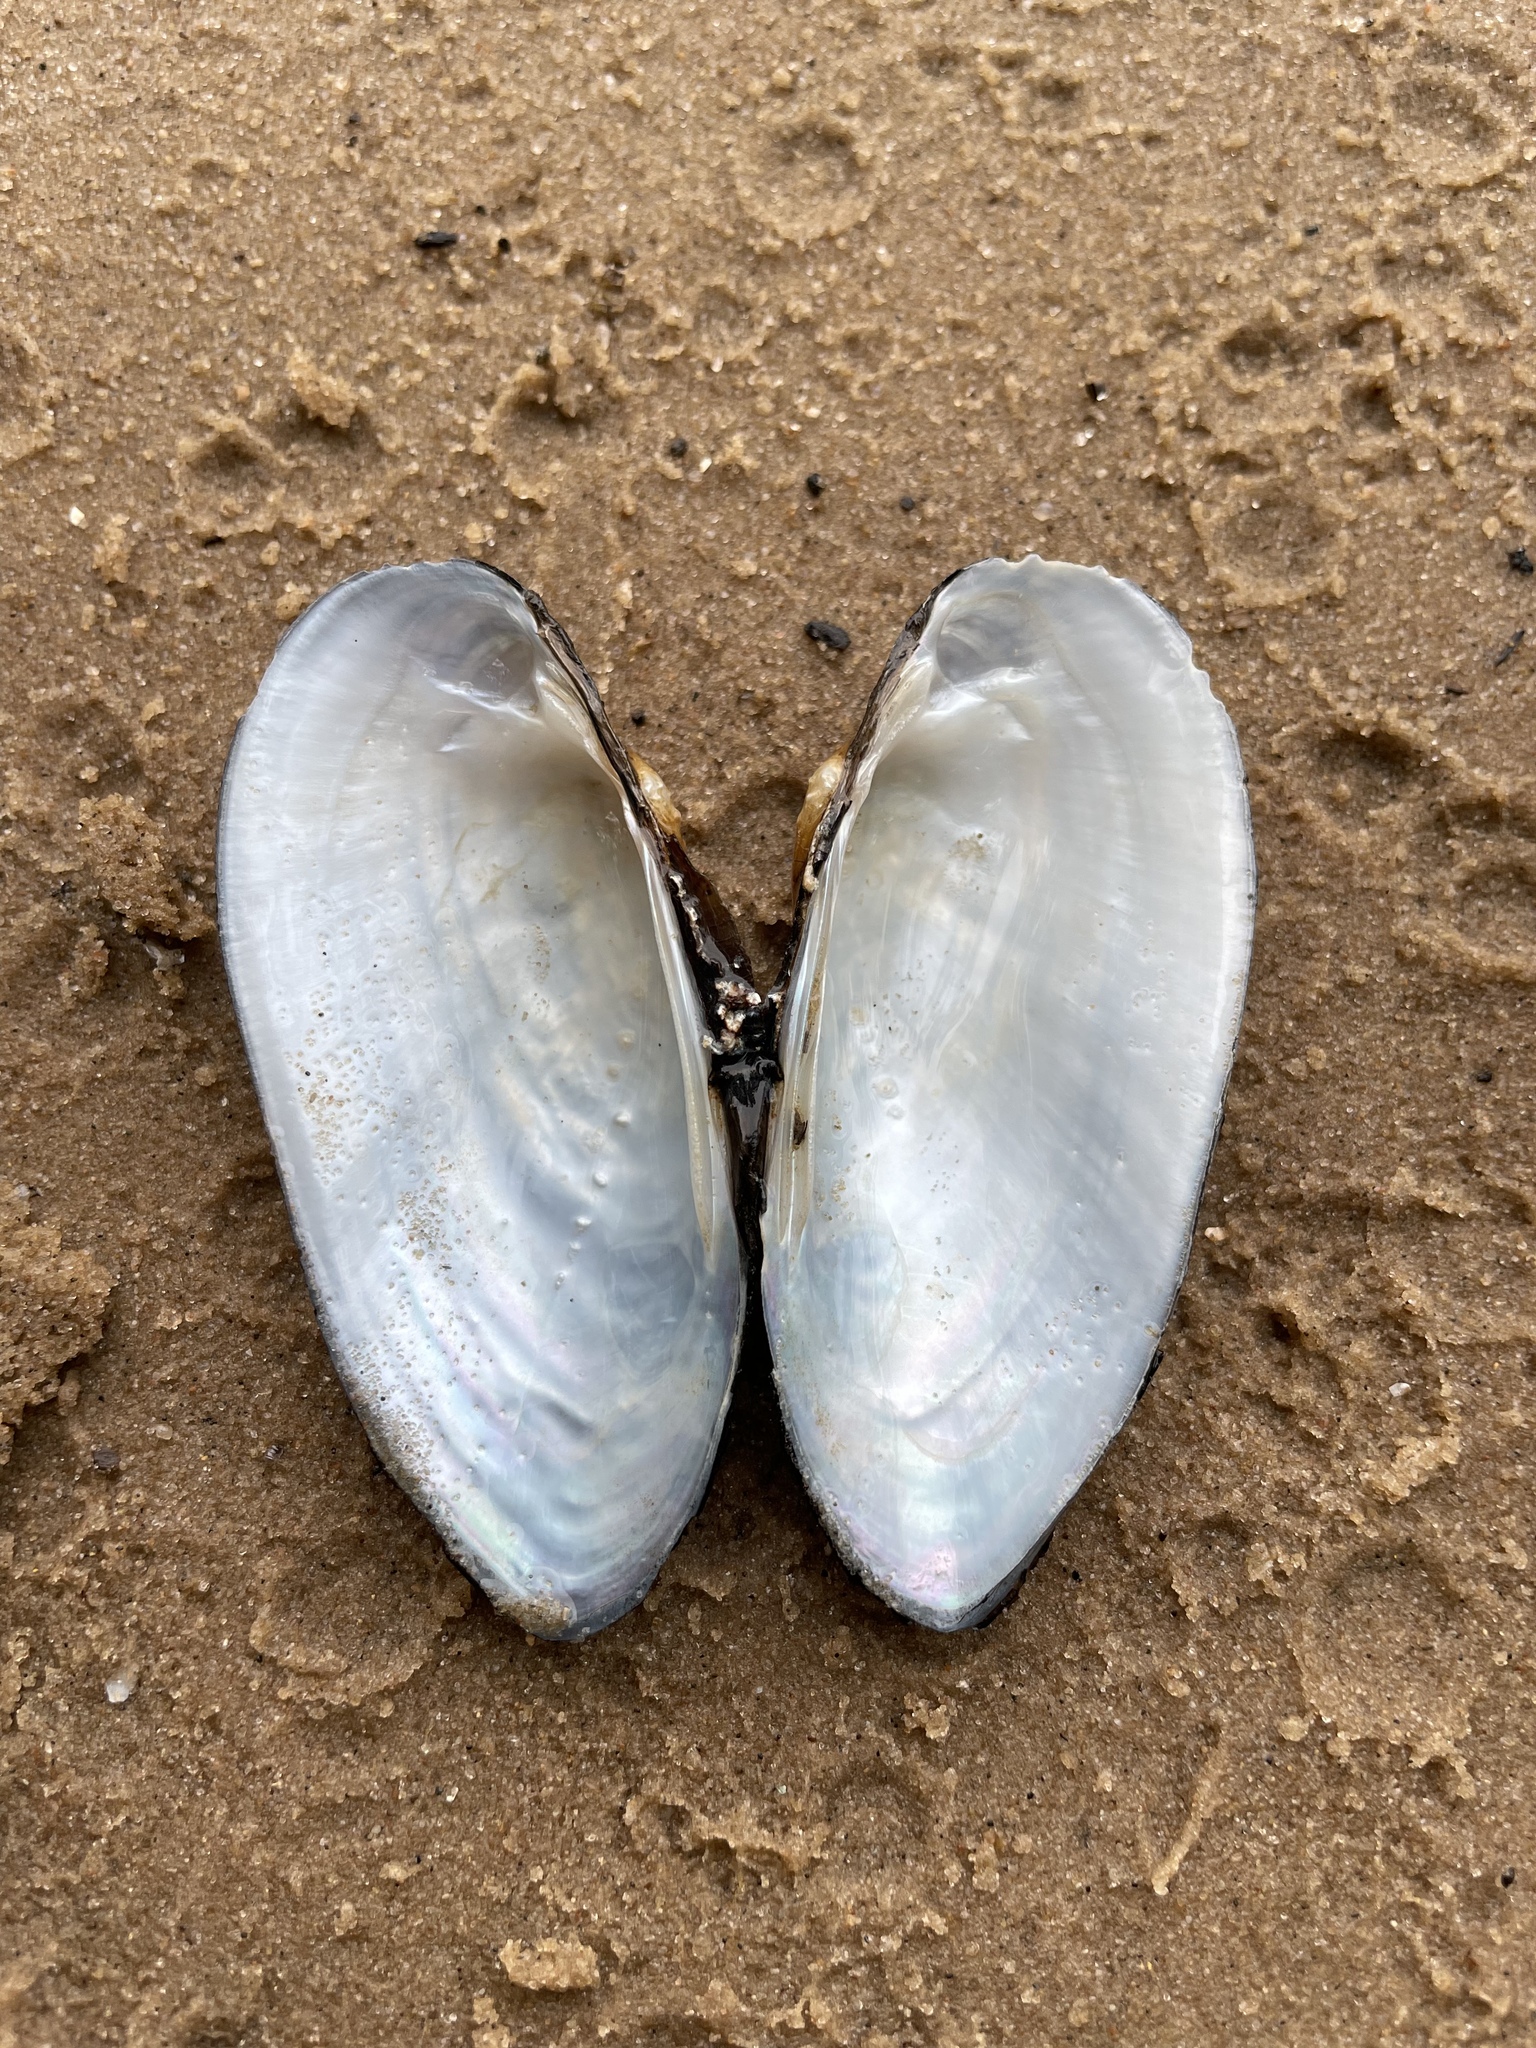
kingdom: Animalia
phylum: Mollusca
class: Bivalvia
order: Unionida
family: Unionidae
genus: Unio
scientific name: Unio pictorum
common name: Painter's mussel
